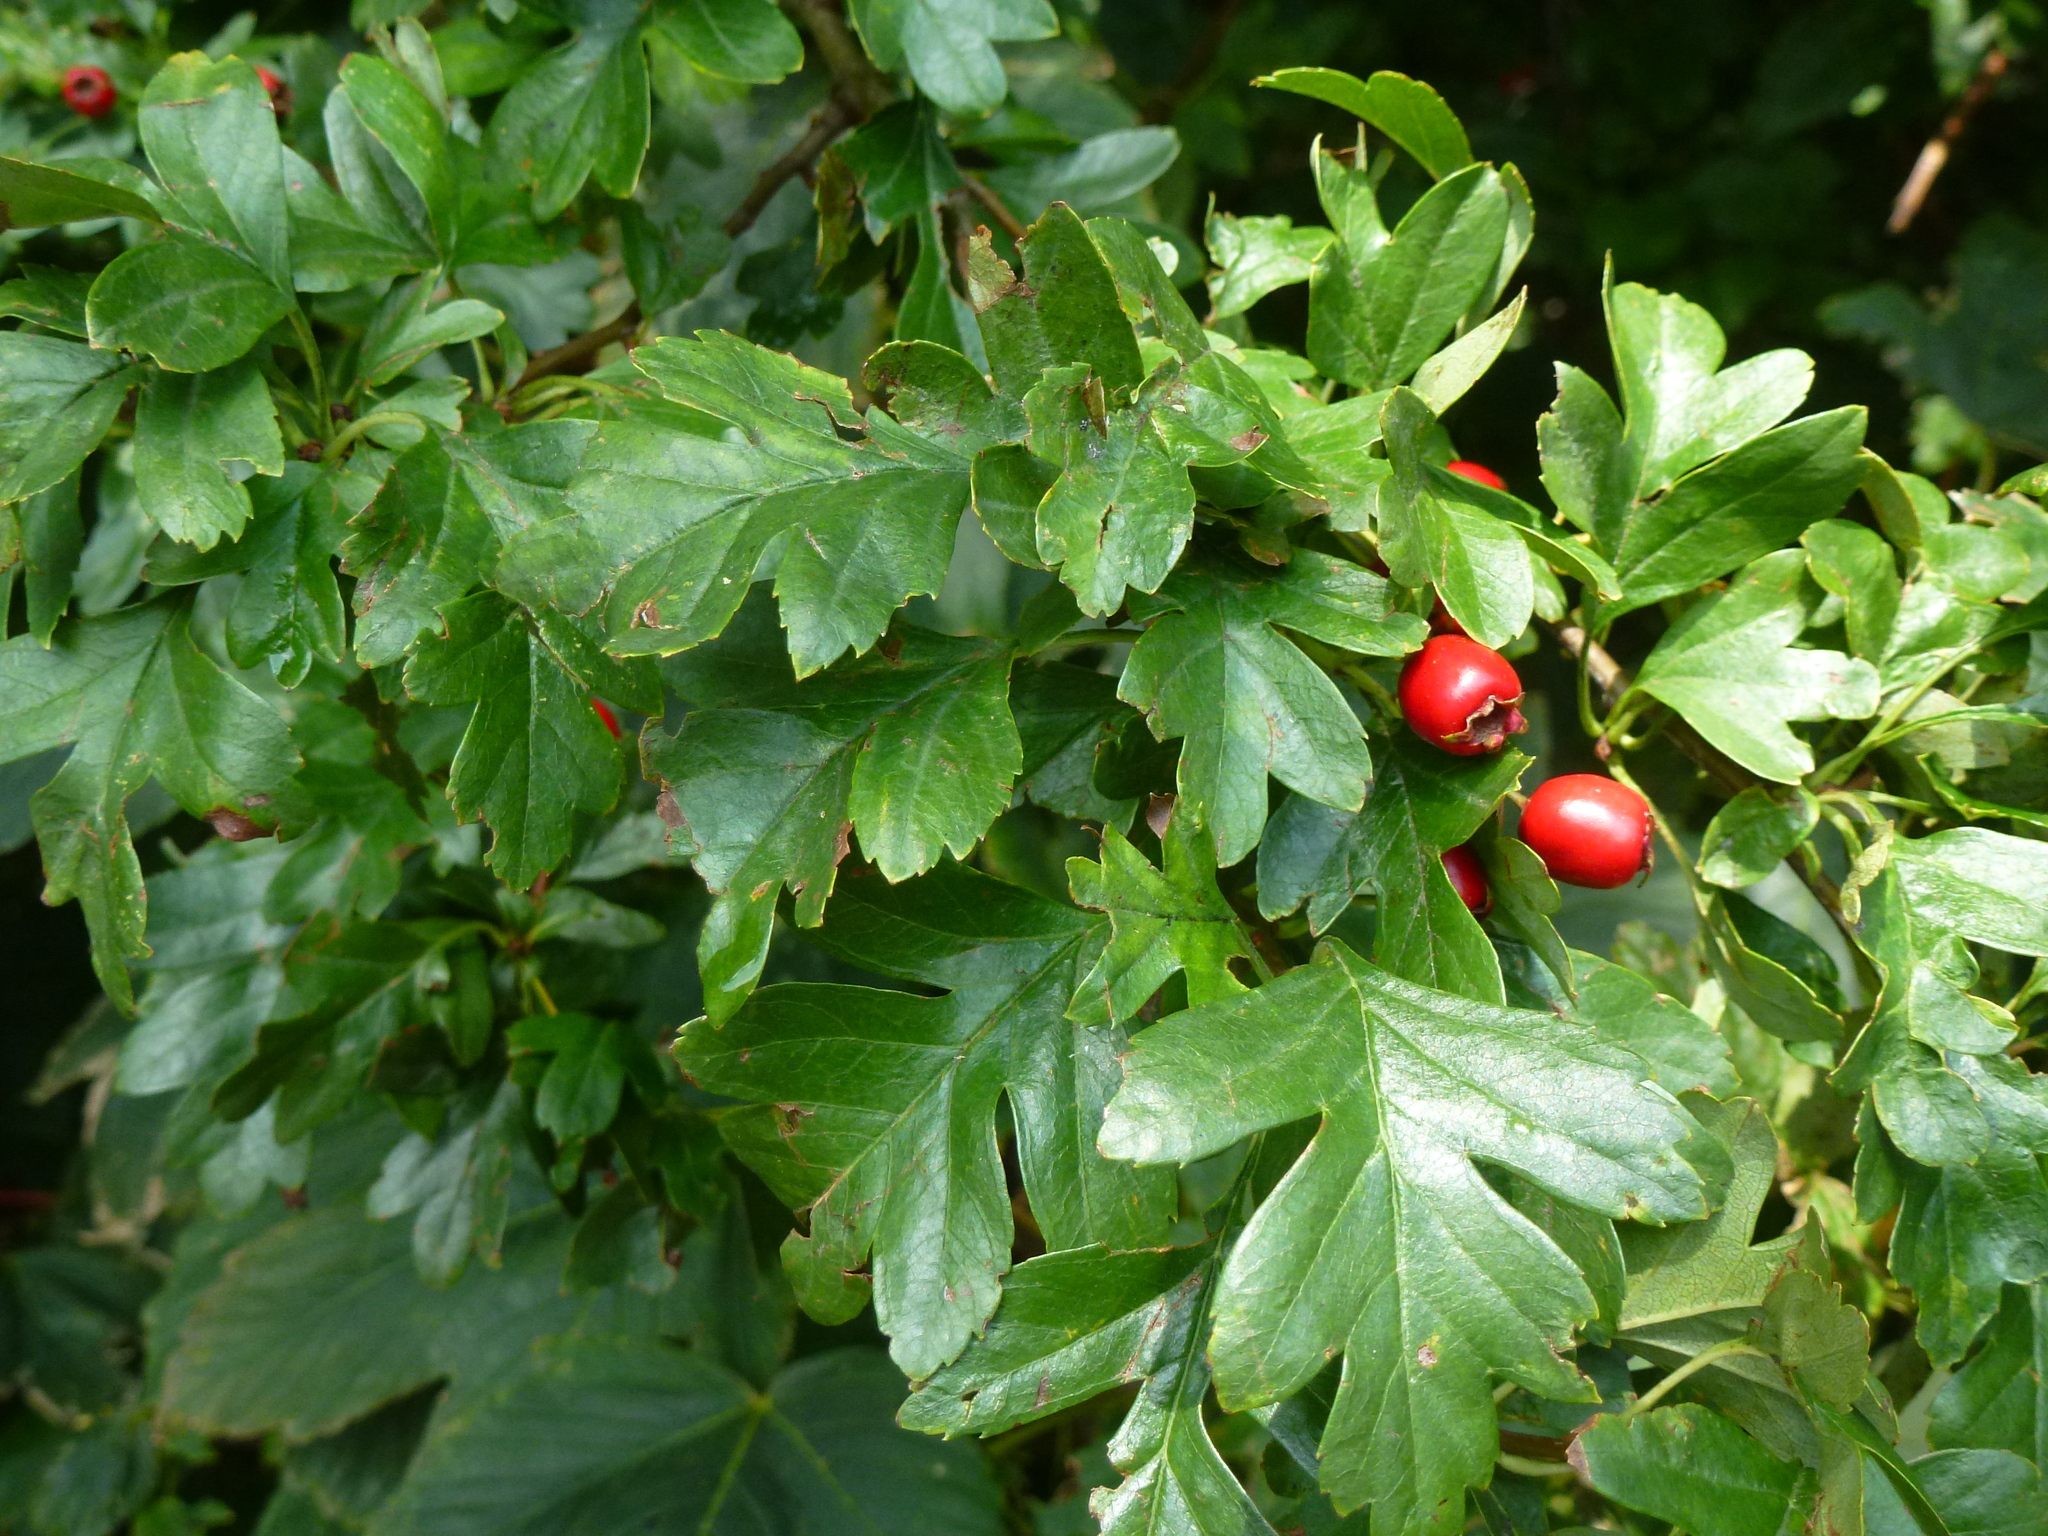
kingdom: Plantae
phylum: Tracheophyta
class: Magnoliopsida
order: Rosales
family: Rosaceae
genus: Crataegus
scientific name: Crataegus monogyna
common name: Hawthorn
